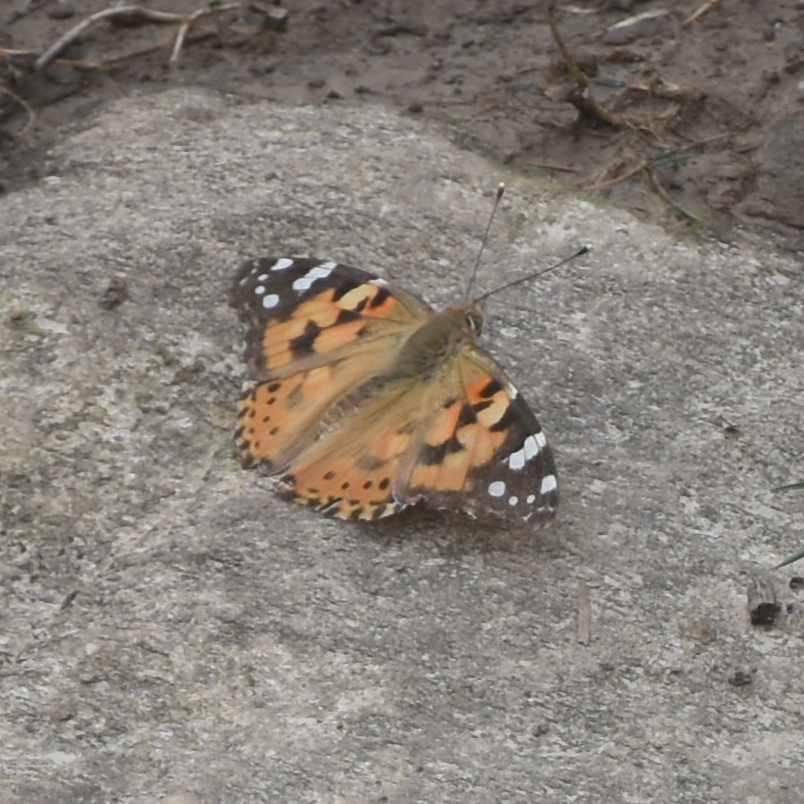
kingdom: Animalia
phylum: Arthropoda
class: Insecta
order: Lepidoptera
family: Nymphalidae
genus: Vanessa
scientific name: Vanessa cardui
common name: Painted lady
